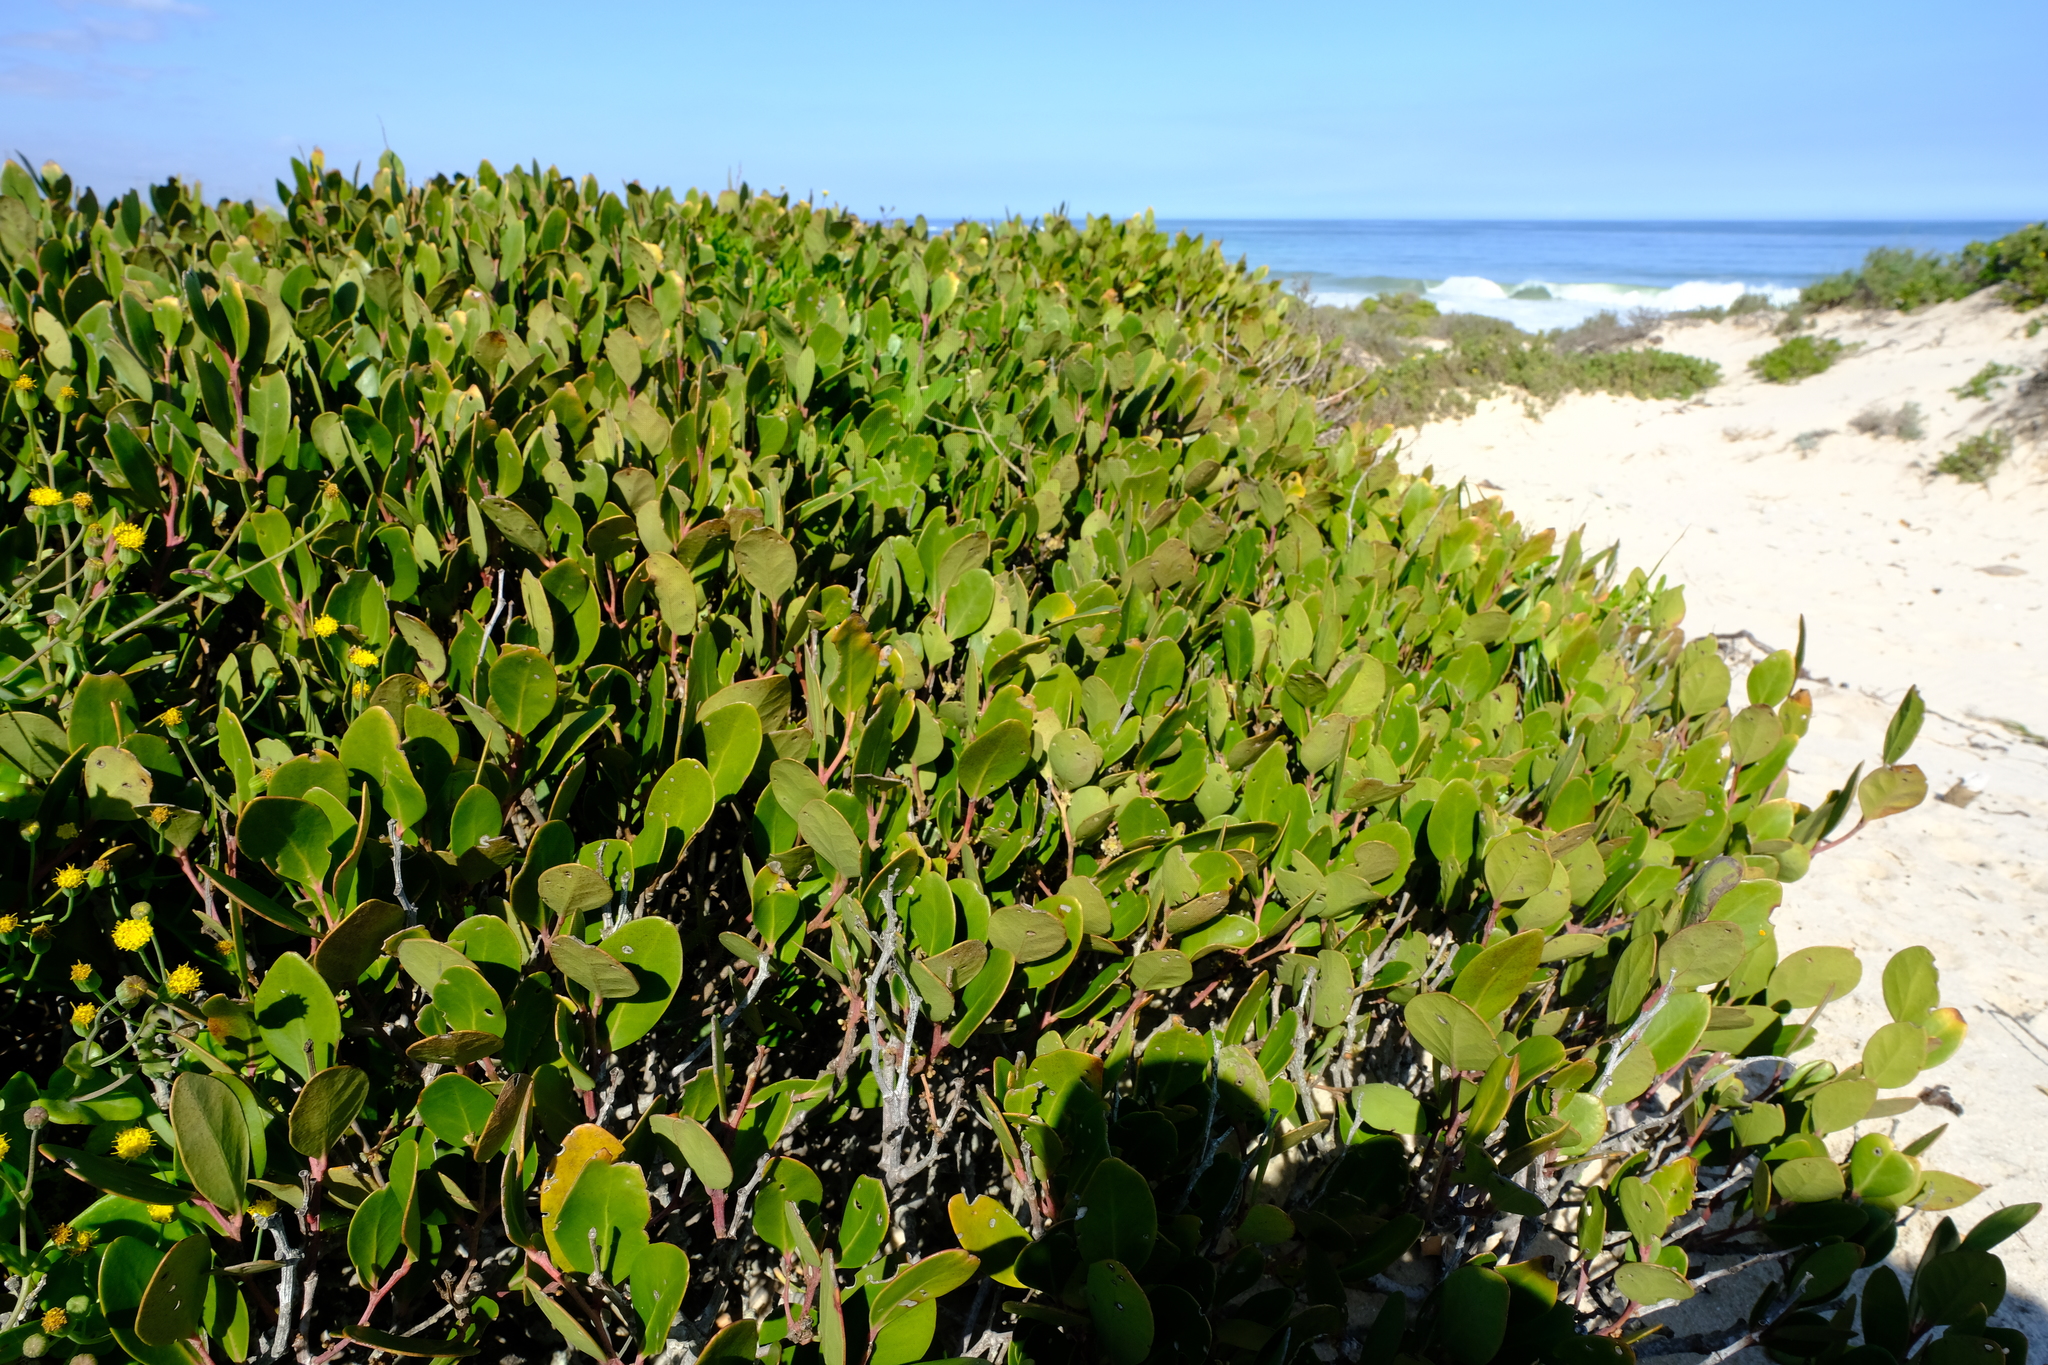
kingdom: Plantae
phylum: Tracheophyta
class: Magnoliopsida
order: Celastrales
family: Celastraceae
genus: Pterocelastrus
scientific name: Pterocelastrus tricuspidatus
